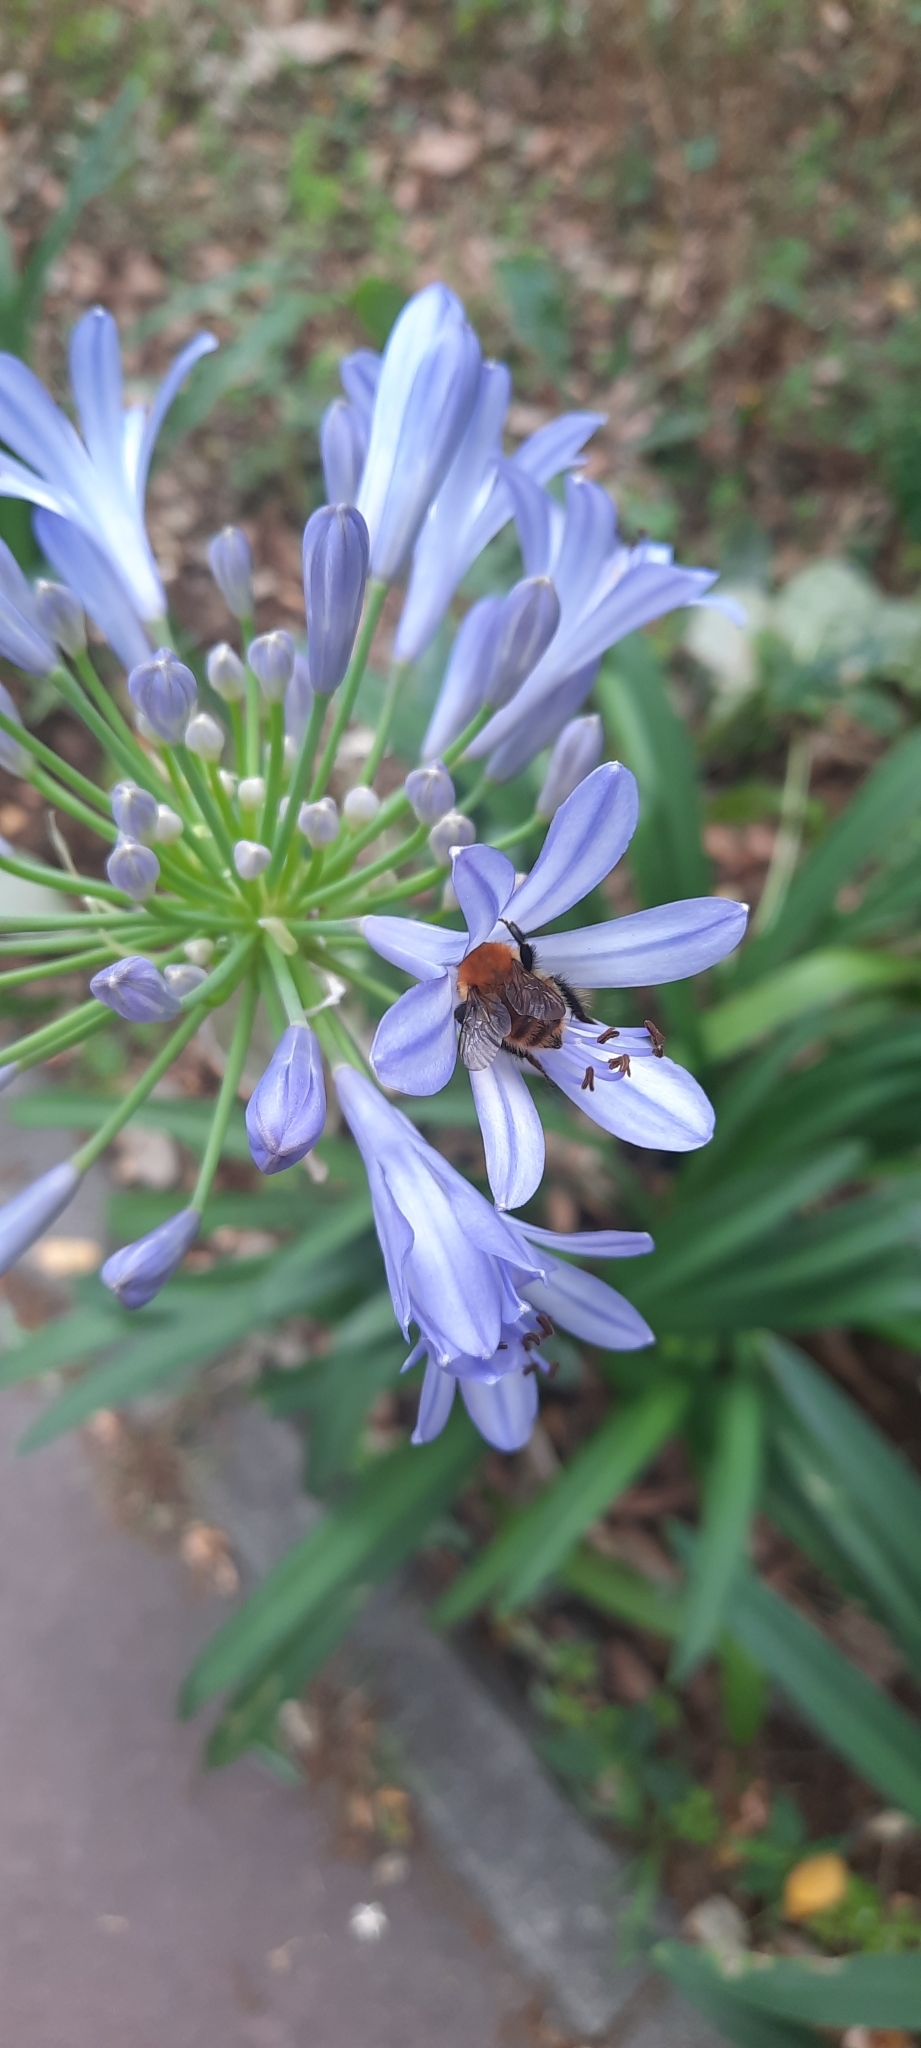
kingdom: Animalia
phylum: Arthropoda
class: Insecta
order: Hymenoptera
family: Apidae
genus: Bombus
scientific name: Bombus pascuorum
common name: Common carder bee
